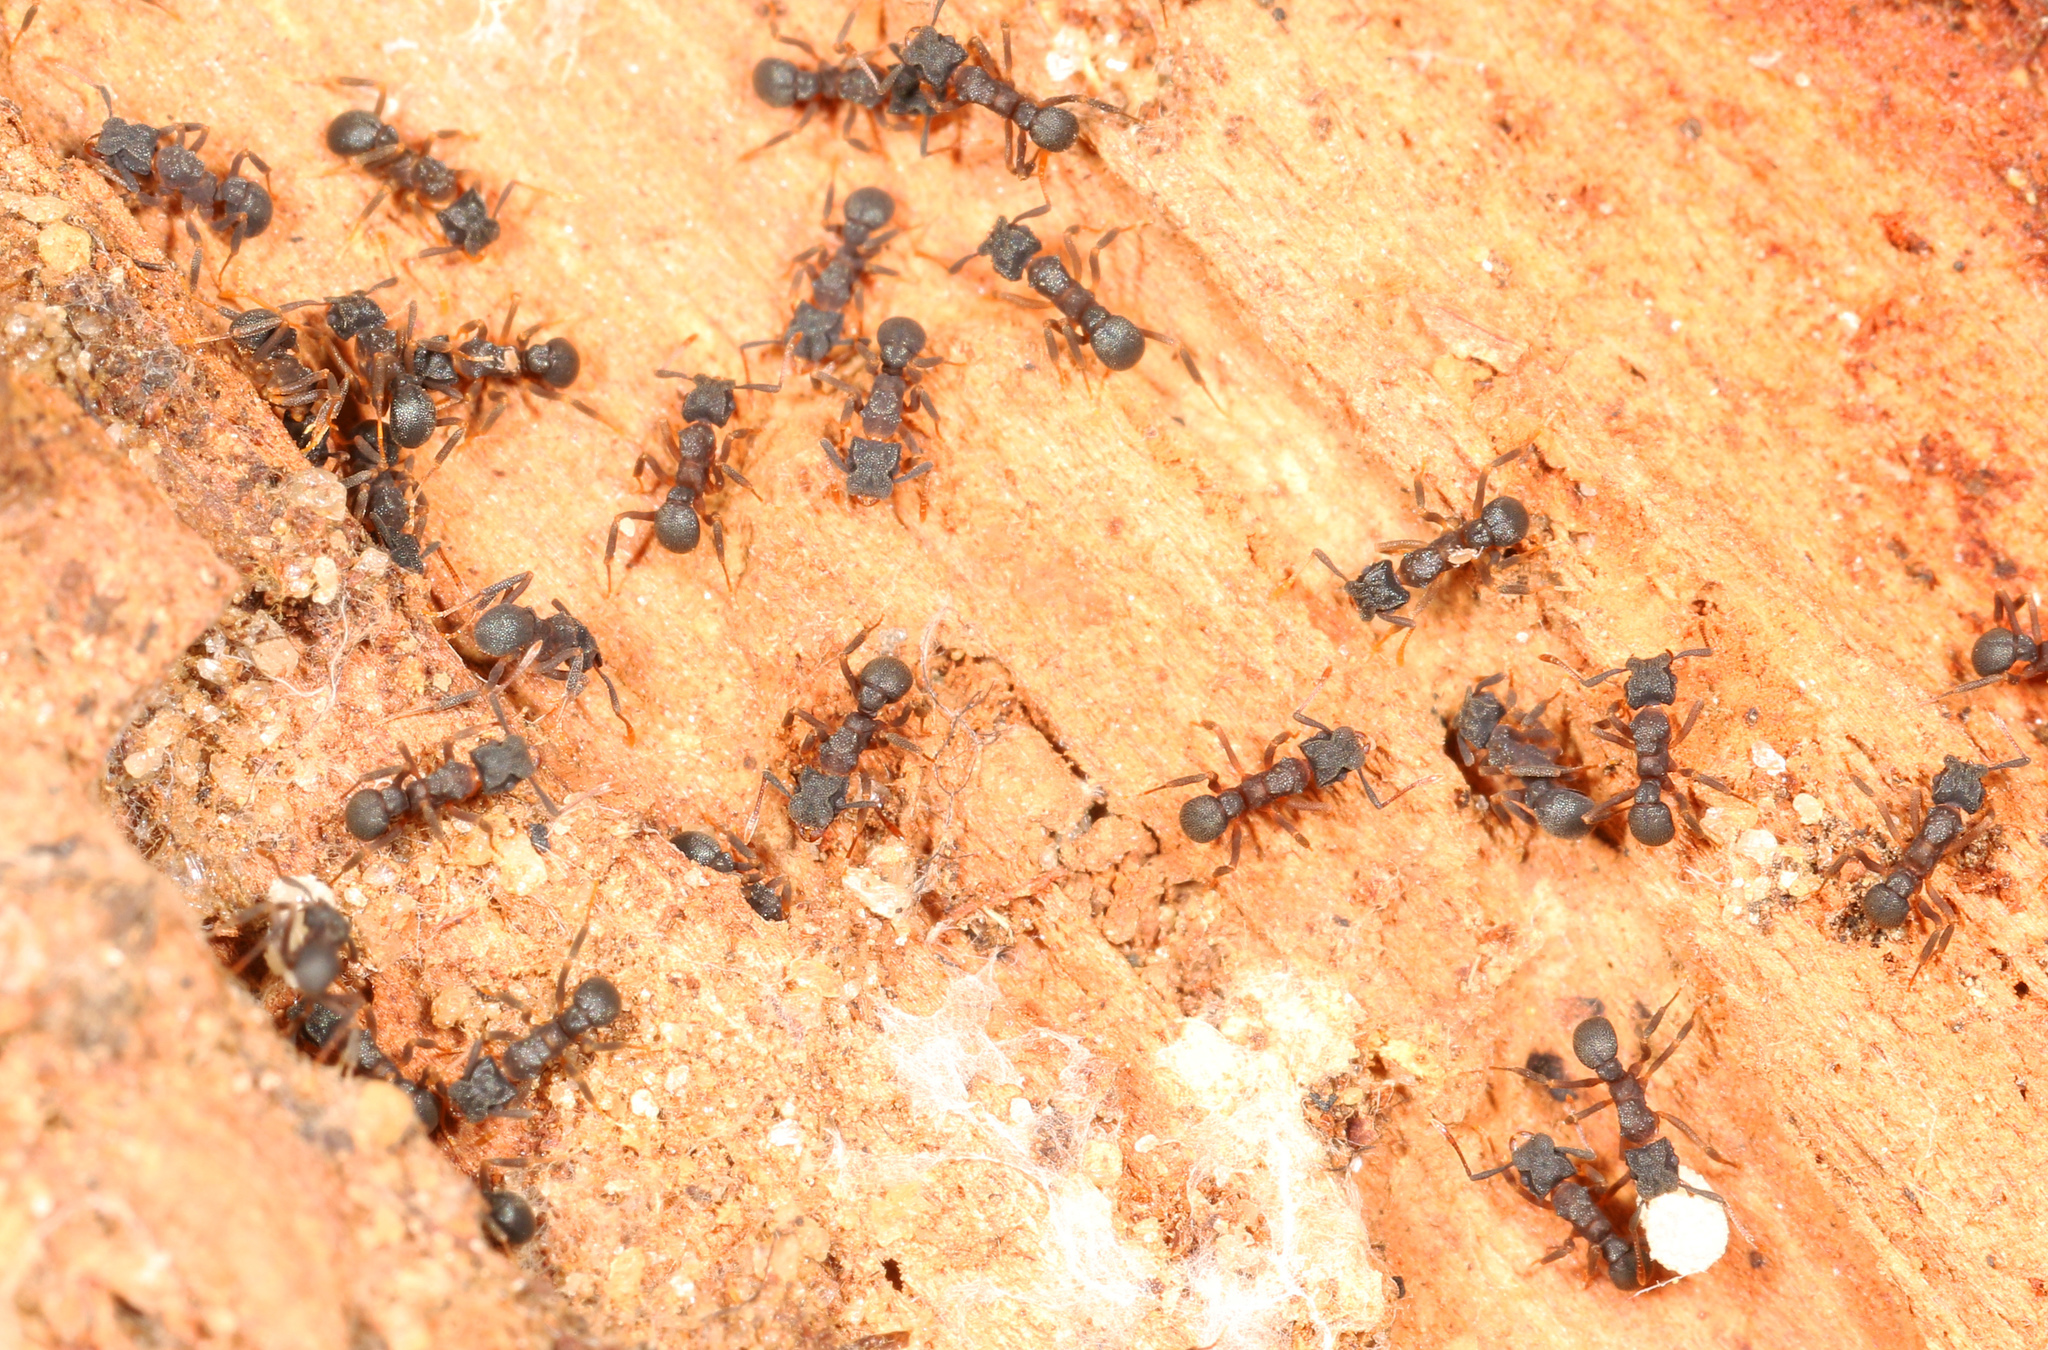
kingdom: Animalia
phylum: Arthropoda
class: Insecta
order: Hymenoptera
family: Formicidae
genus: Cyphomyrmex
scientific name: Cyphomyrmex rimosus
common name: Rimose fungus ant
